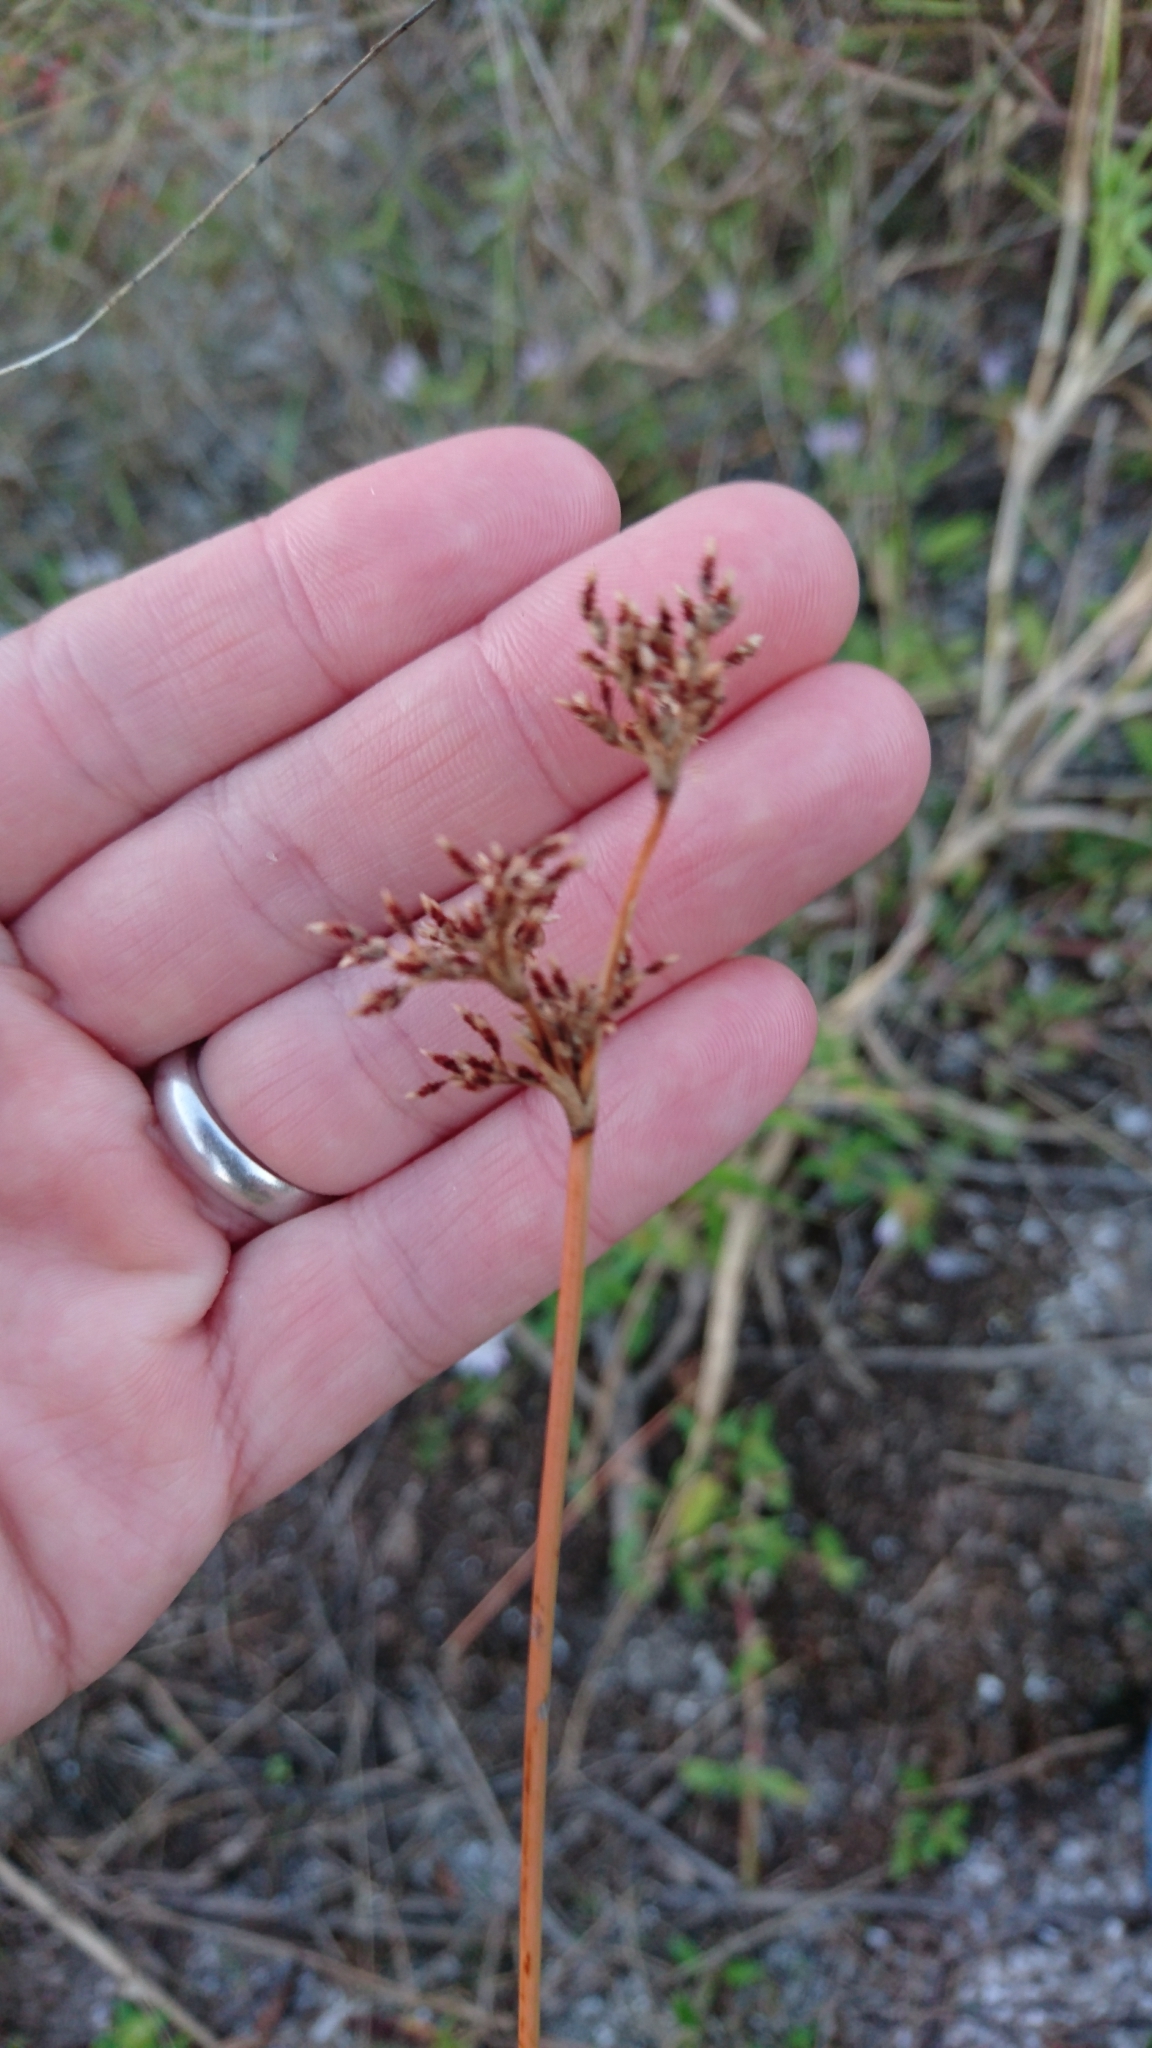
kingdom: Plantae
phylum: Tracheophyta
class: Liliopsida
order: Poales
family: Cyperaceae
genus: Fimbristylis
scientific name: Fimbristylis cymosa
